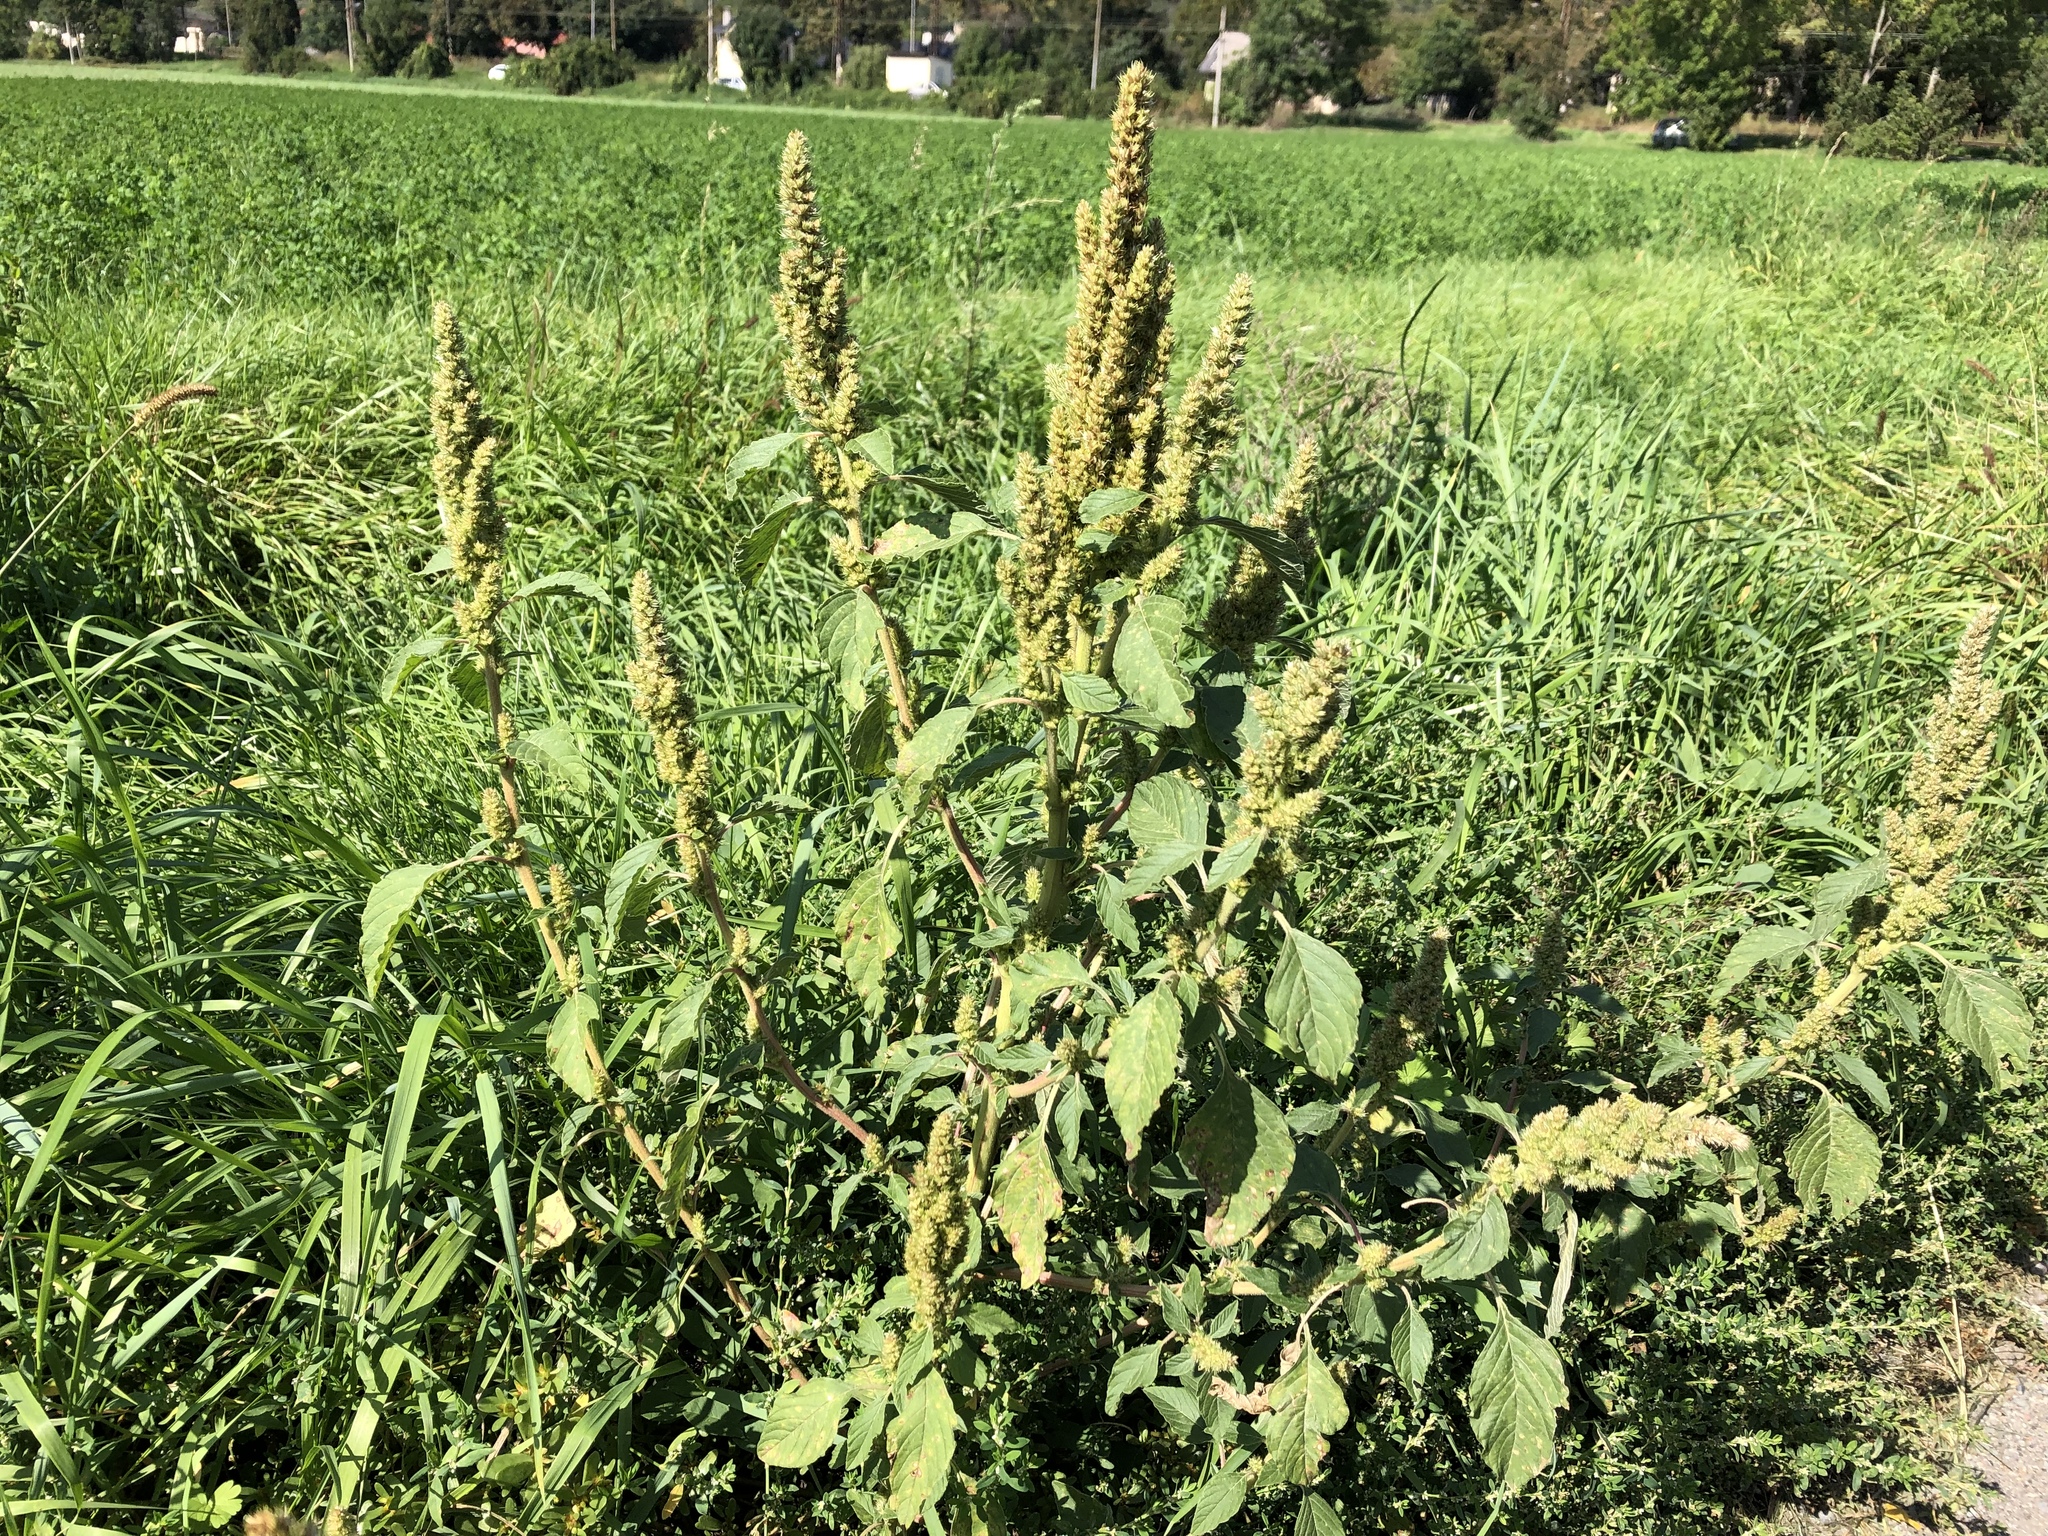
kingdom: Plantae
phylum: Tracheophyta
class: Magnoliopsida
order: Caryophyllales
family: Amaranthaceae
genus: Amaranthus
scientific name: Amaranthus retroflexus
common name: Redroot amaranth
